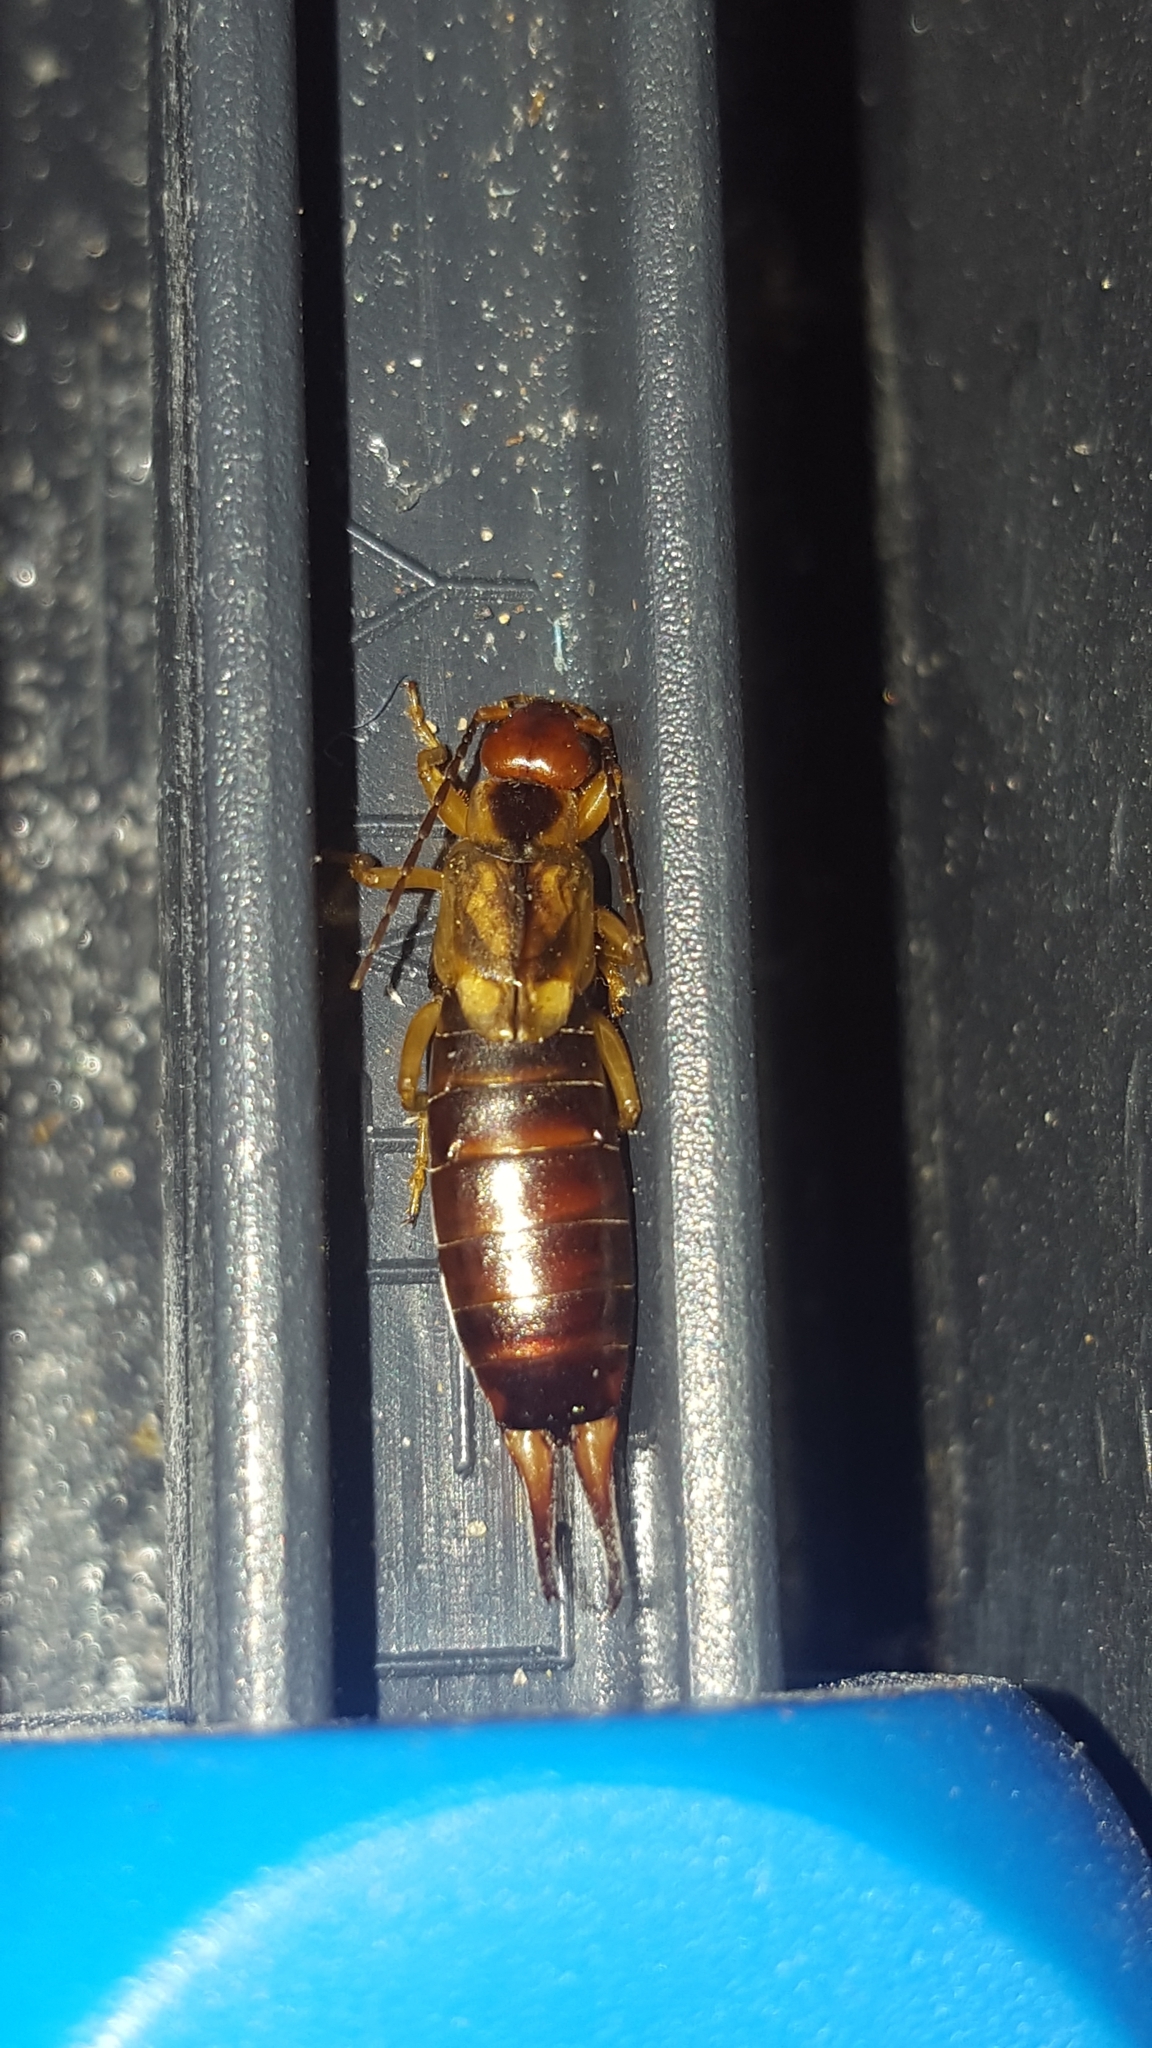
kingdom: Animalia
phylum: Arthropoda
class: Insecta
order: Dermaptera
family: Forficulidae
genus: Forficula
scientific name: Forficula
